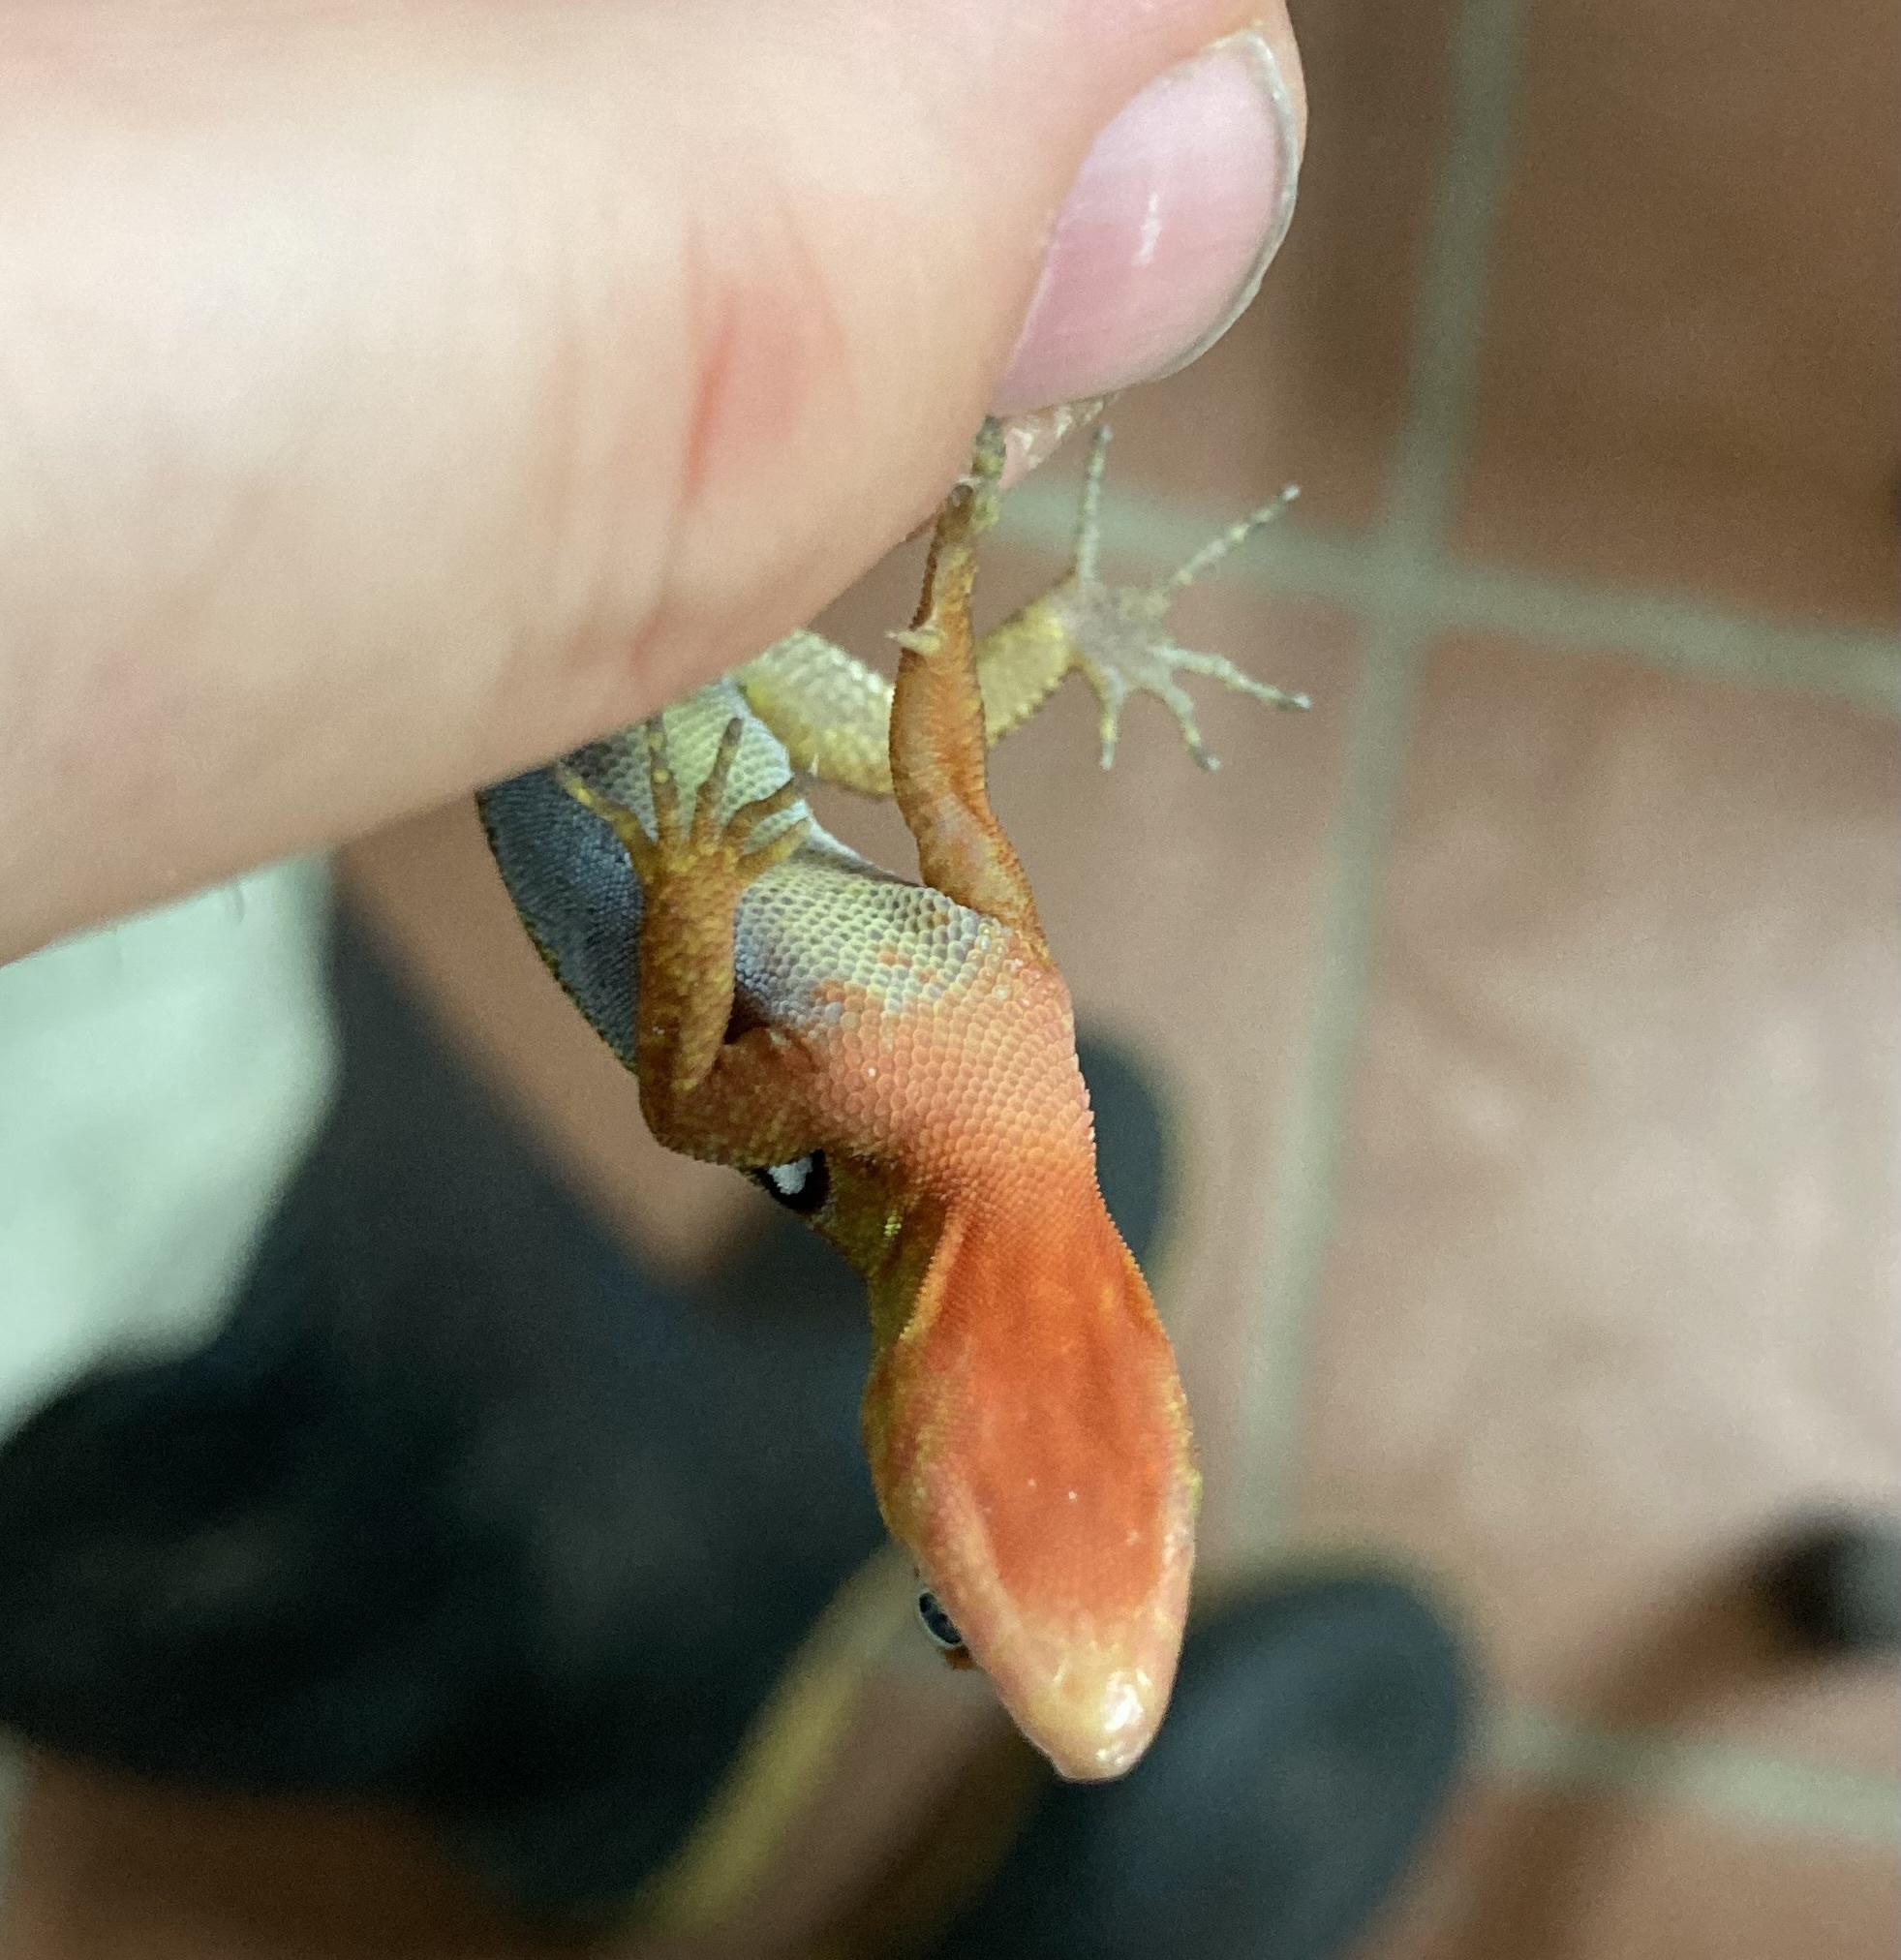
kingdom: Animalia
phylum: Chordata
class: Squamata
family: Sphaerodactylidae
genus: Gonatodes
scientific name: Gonatodes riveroi
